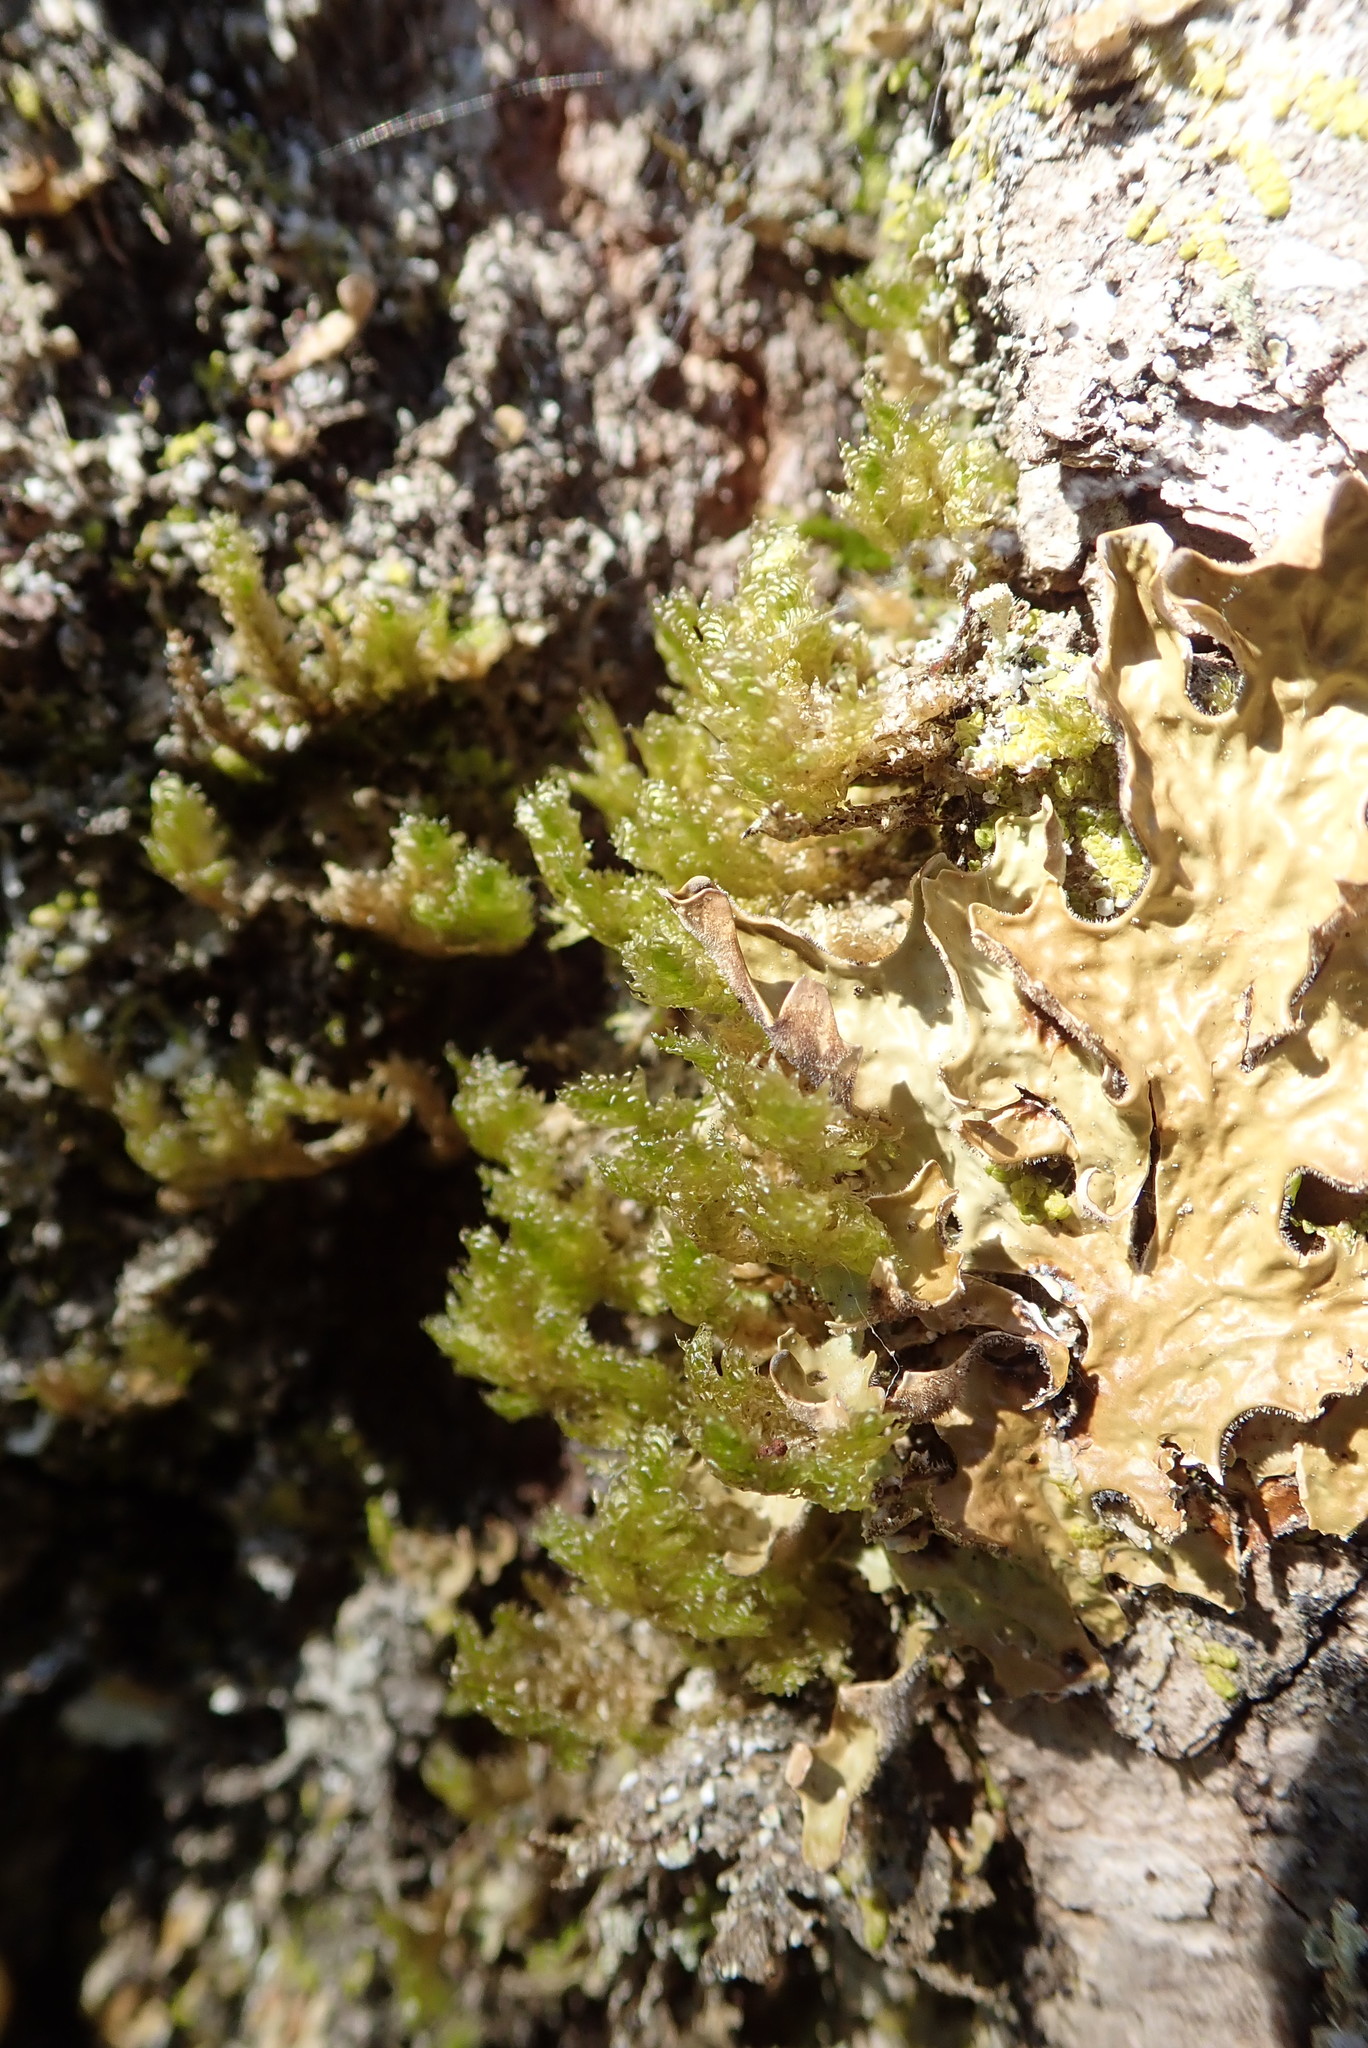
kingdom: Plantae
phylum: Bryophyta
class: Bryopsida
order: Hypnales
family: Neckeraceae
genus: Neckera
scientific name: Neckera pennata
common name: Feathery neckera
